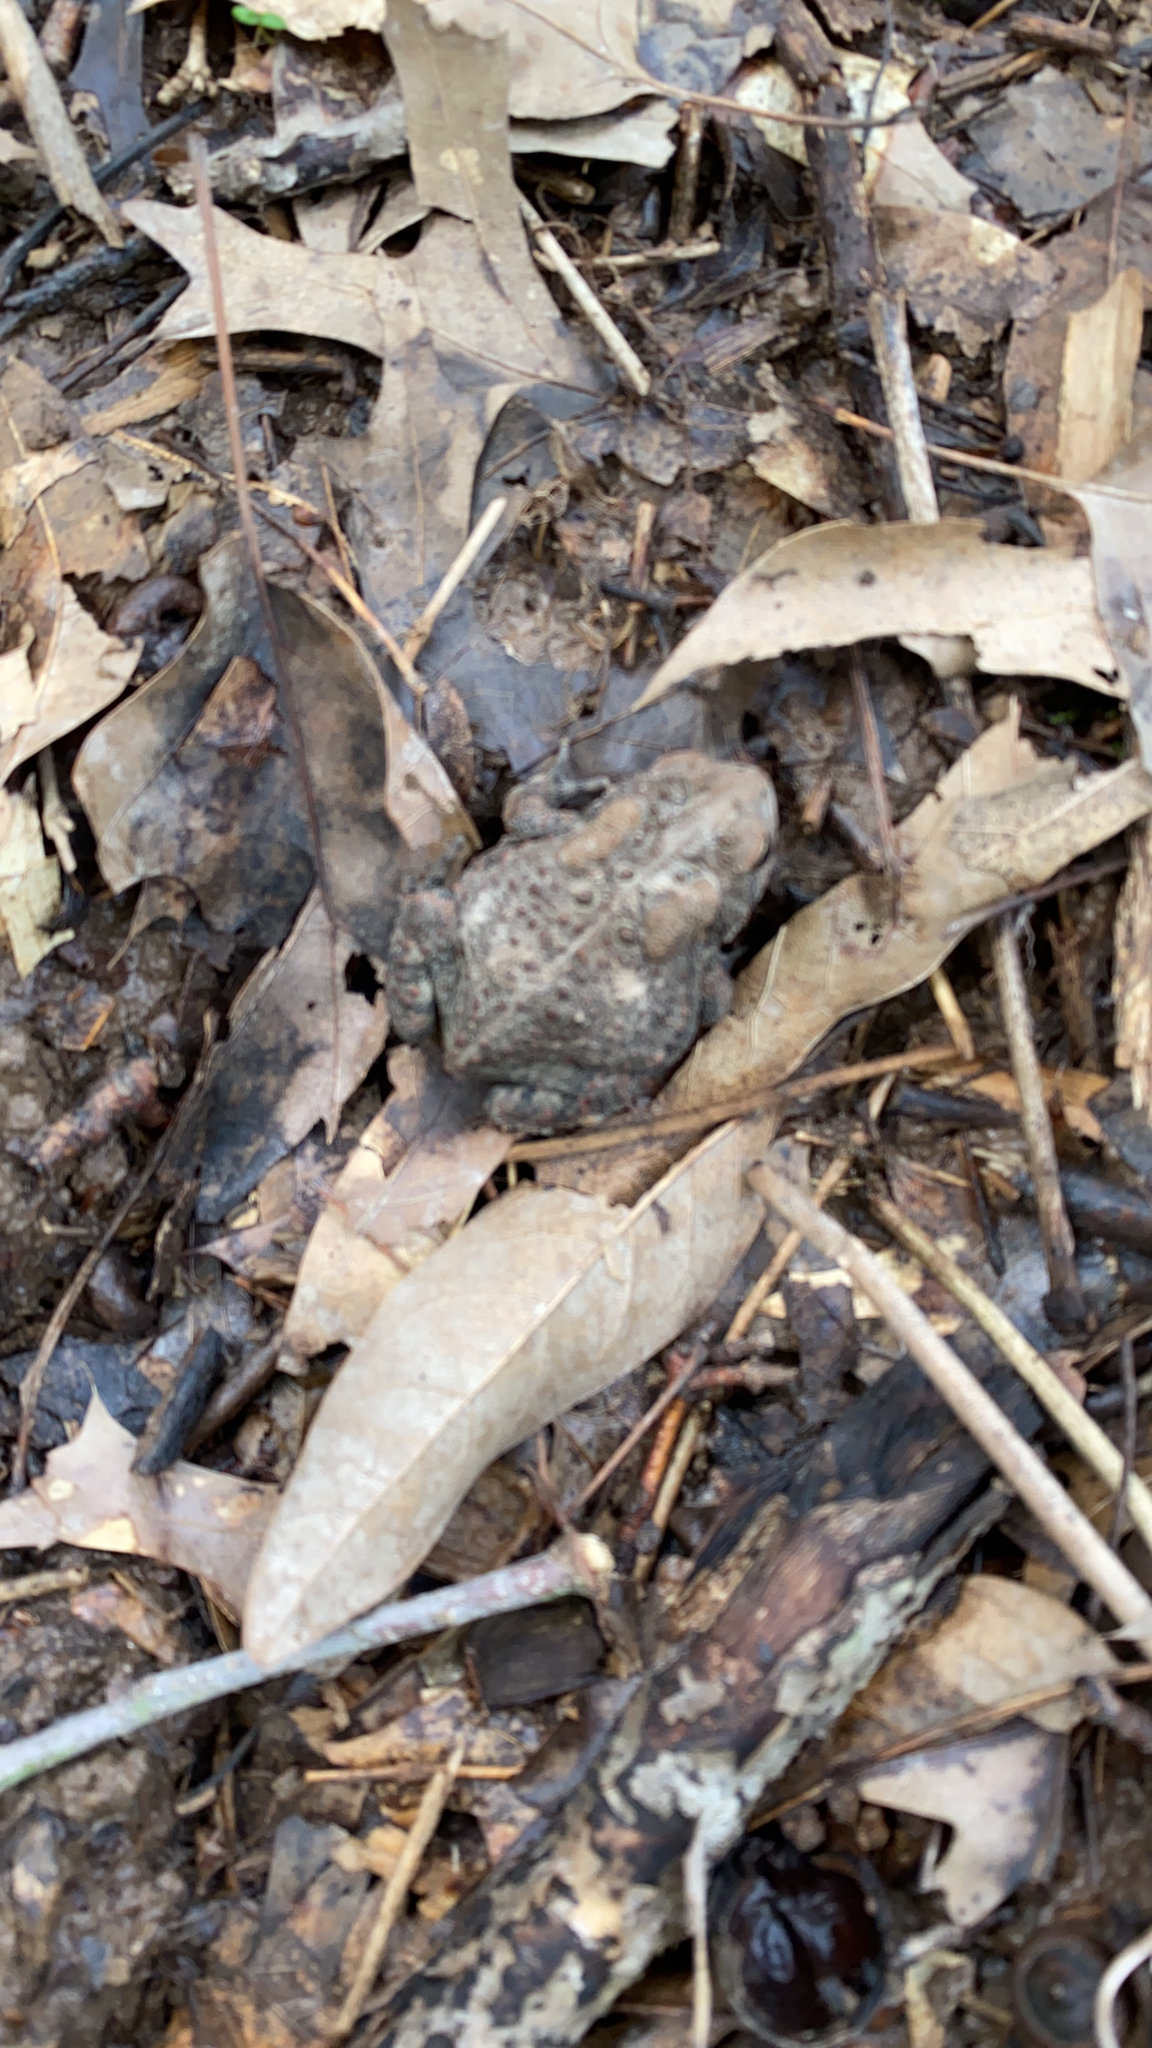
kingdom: Animalia
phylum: Chordata
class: Amphibia
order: Anura
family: Bufonidae
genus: Anaxyrus
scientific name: Anaxyrus americanus
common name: American toad
